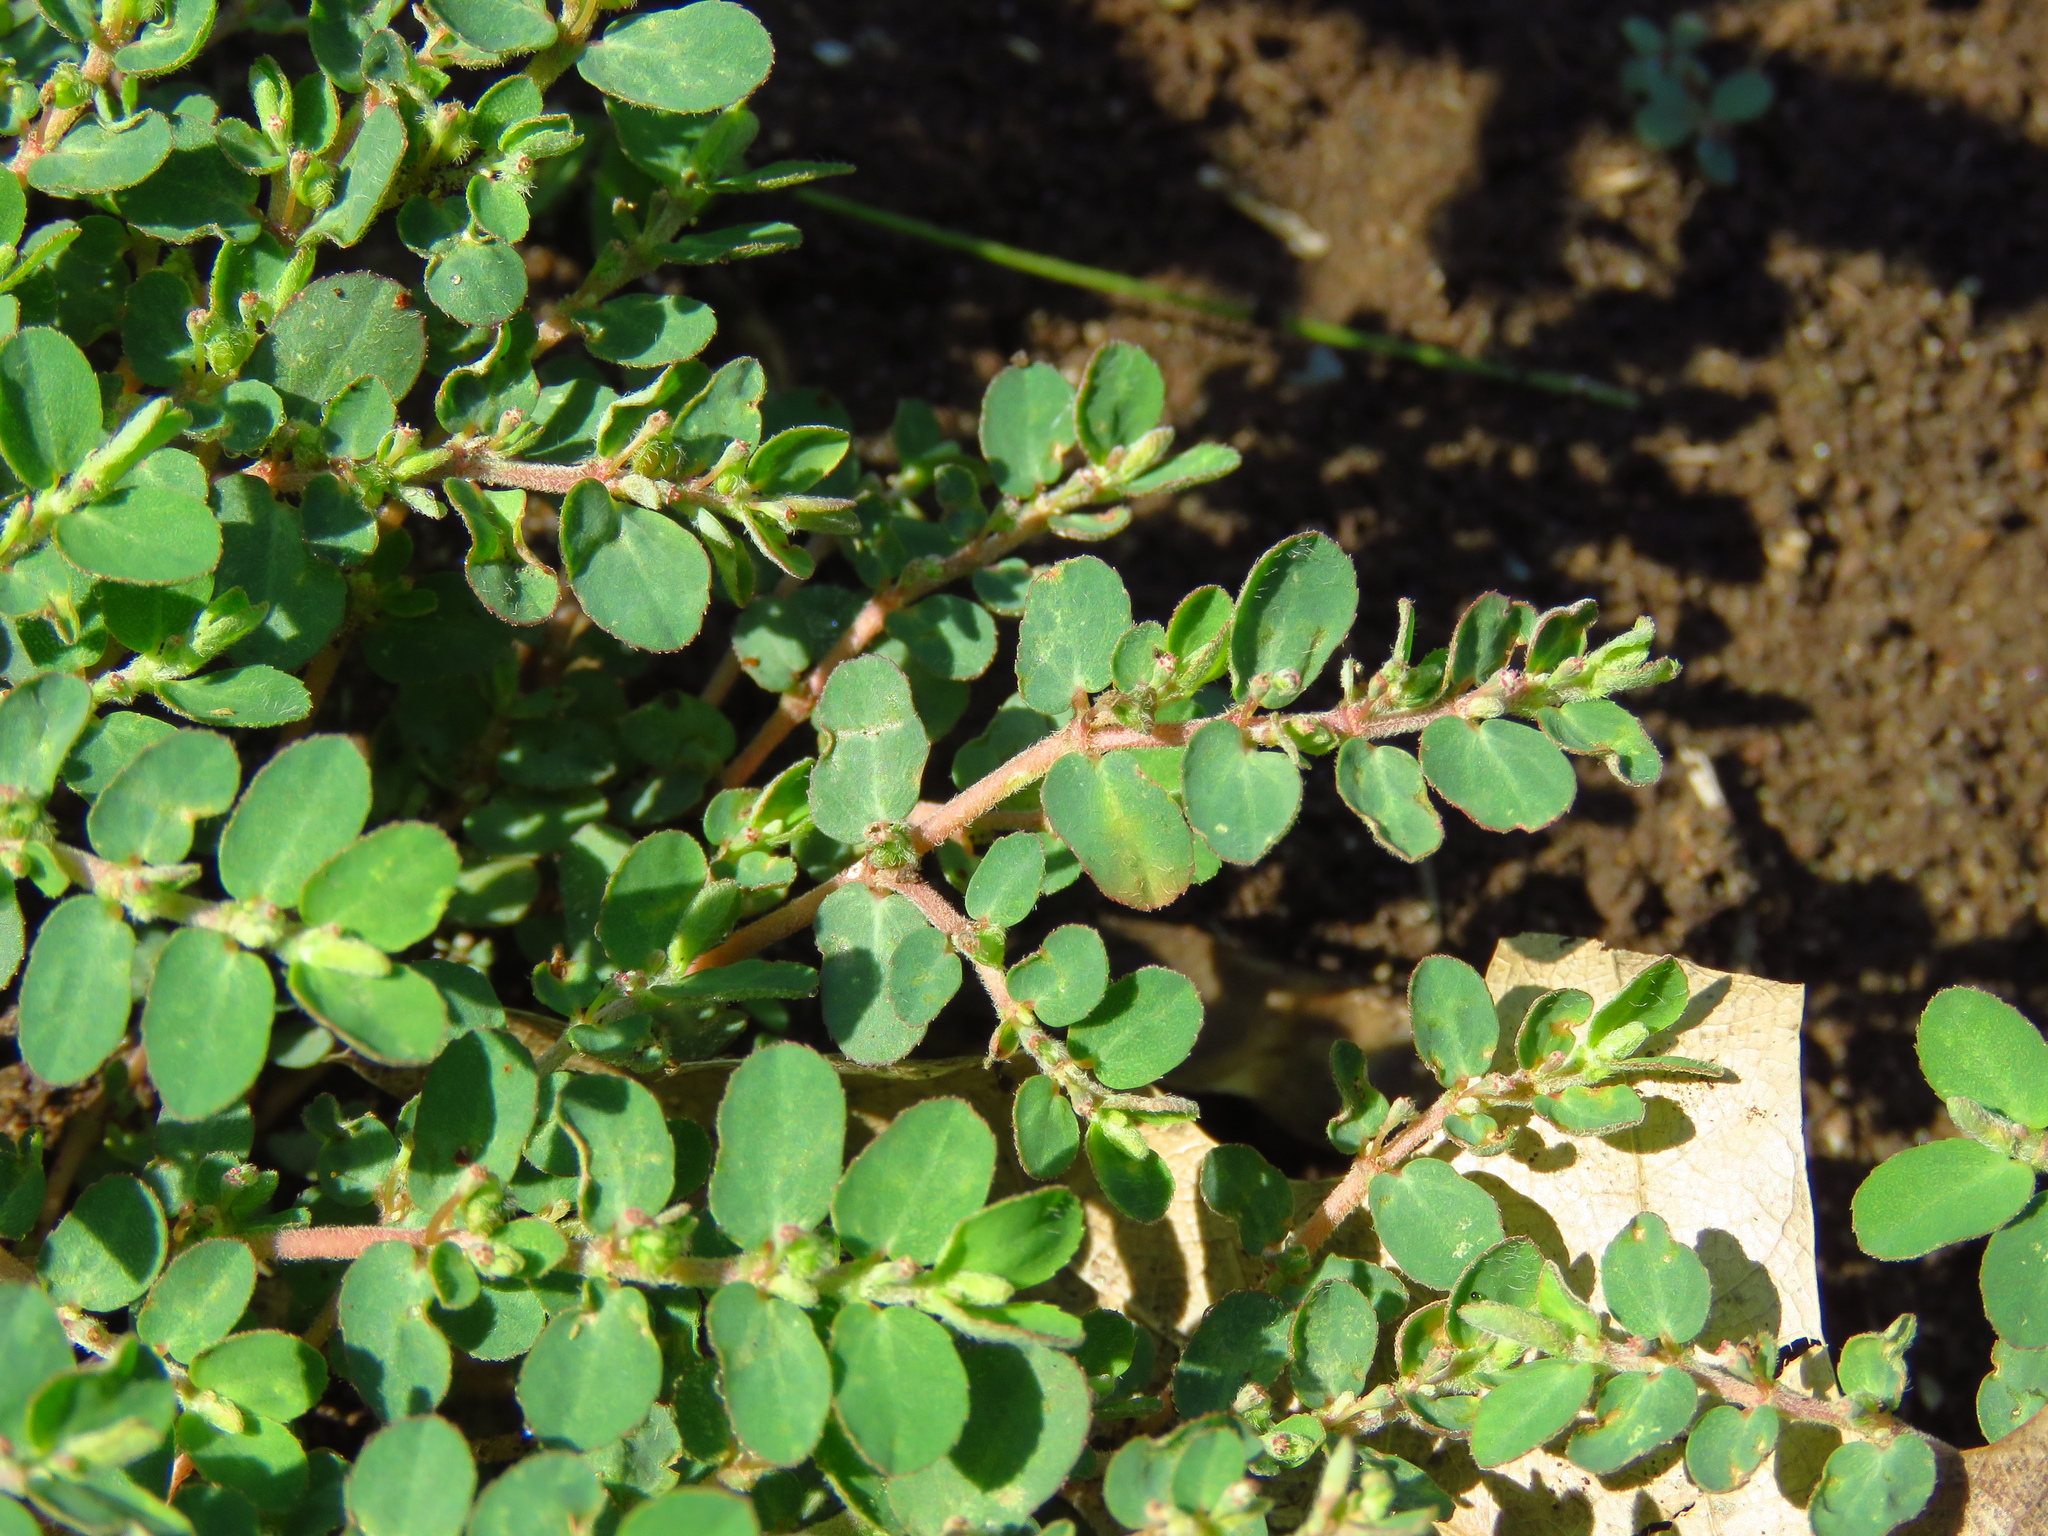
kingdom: Plantae
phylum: Tracheophyta
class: Magnoliopsida
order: Malpighiales
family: Euphorbiaceae
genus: Euphorbia
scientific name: Euphorbia prostrata
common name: Prostrate sandmat
